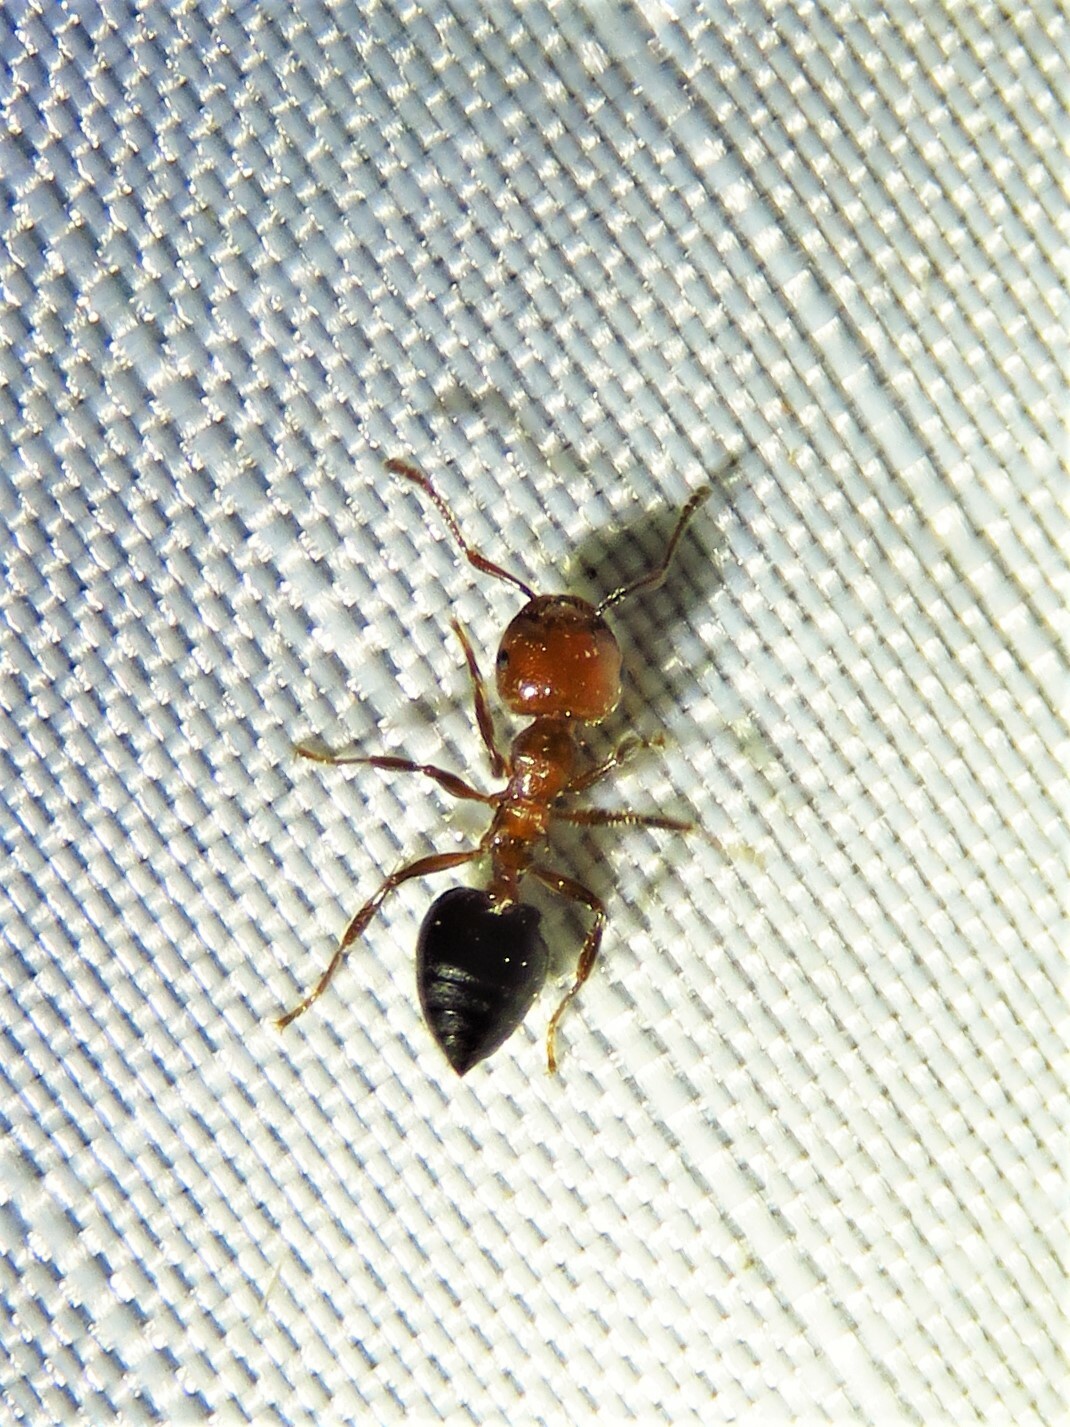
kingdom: Animalia
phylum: Arthropoda
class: Insecta
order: Hymenoptera
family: Formicidae
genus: Crematogaster
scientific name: Crematogaster laeviuscula
